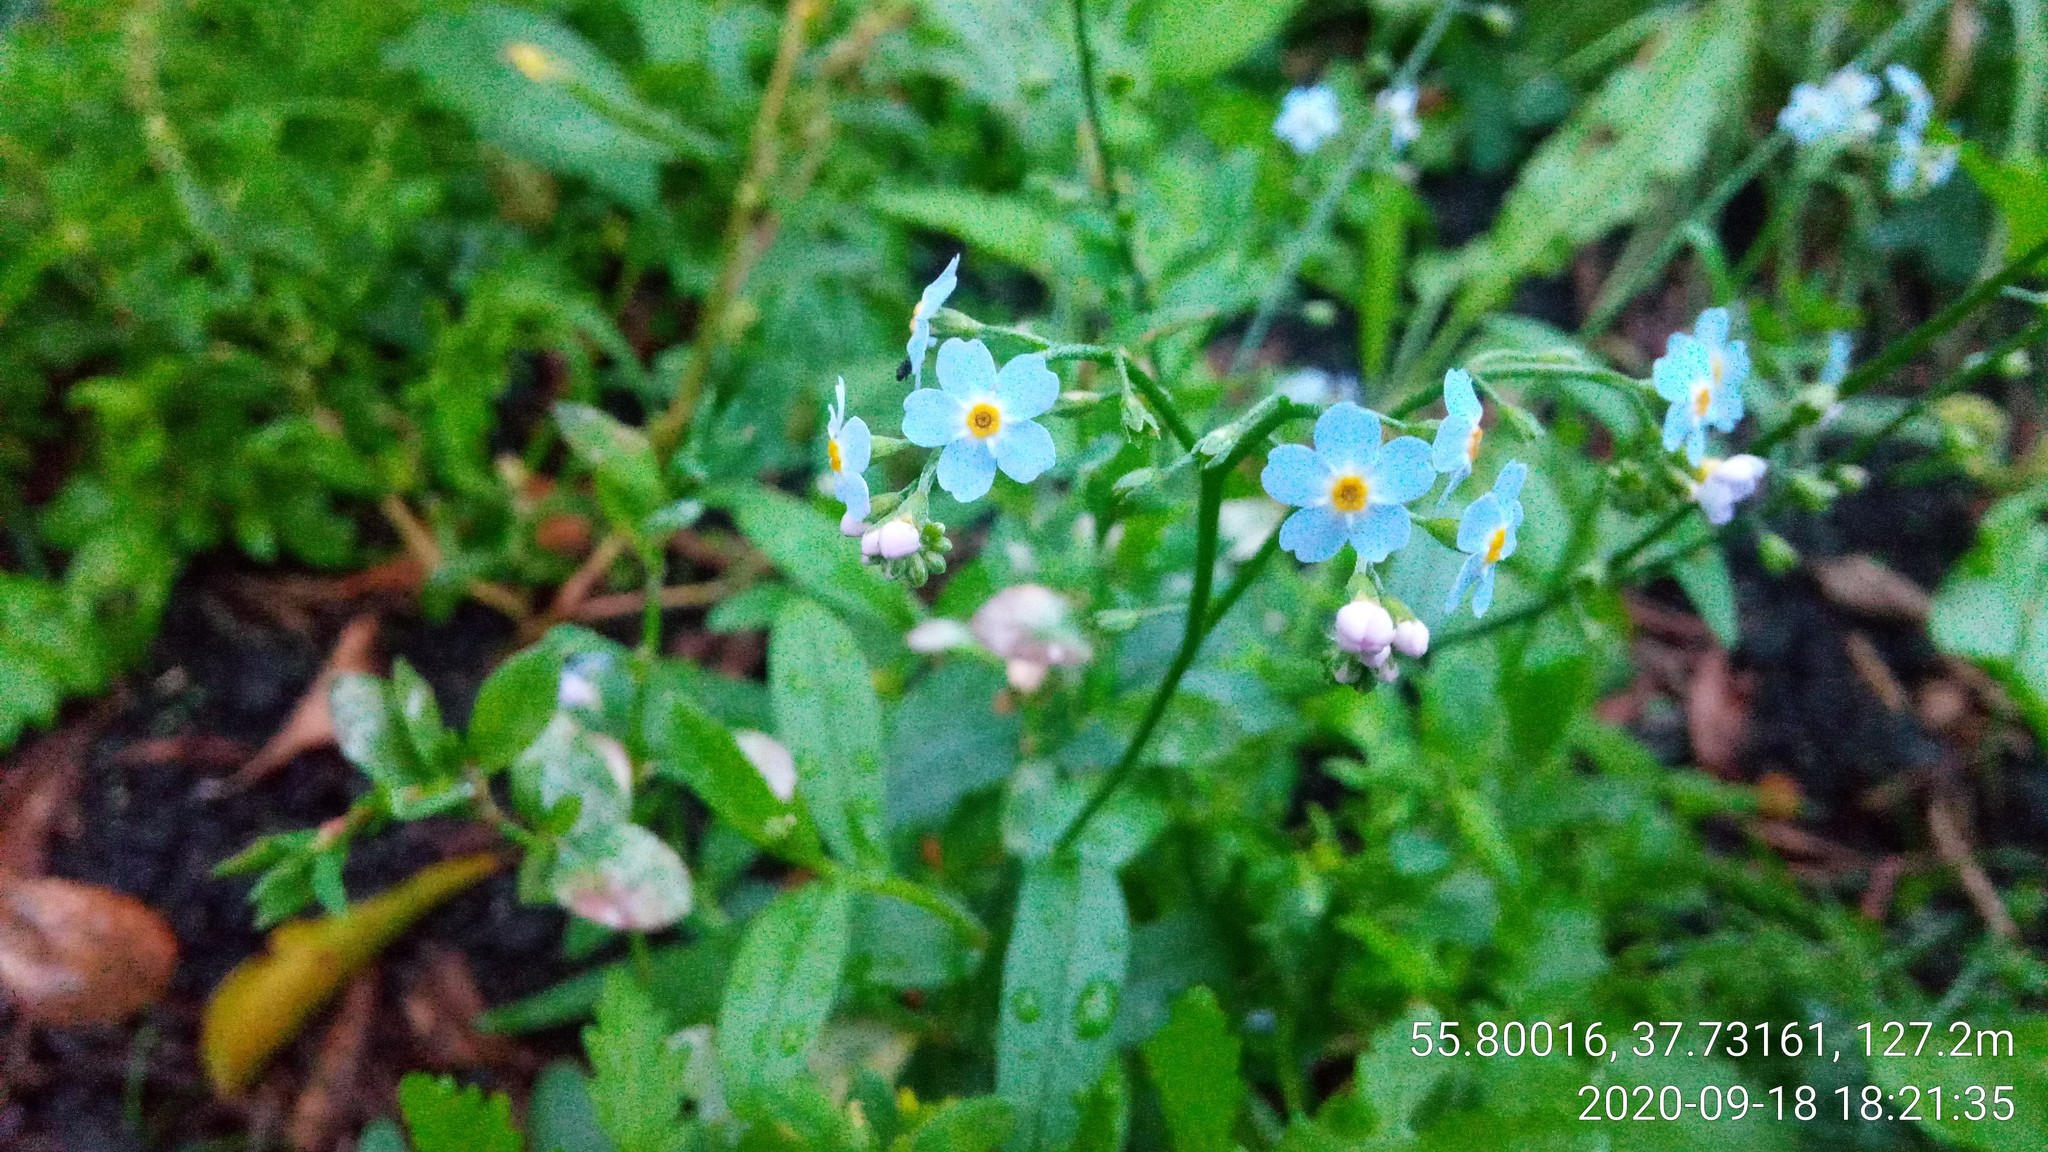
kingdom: Plantae
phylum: Tracheophyta
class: Magnoliopsida
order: Boraginales
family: Boraginaceae
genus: Myosotis
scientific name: Myosotis scorpioides
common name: Water forget-me-not
